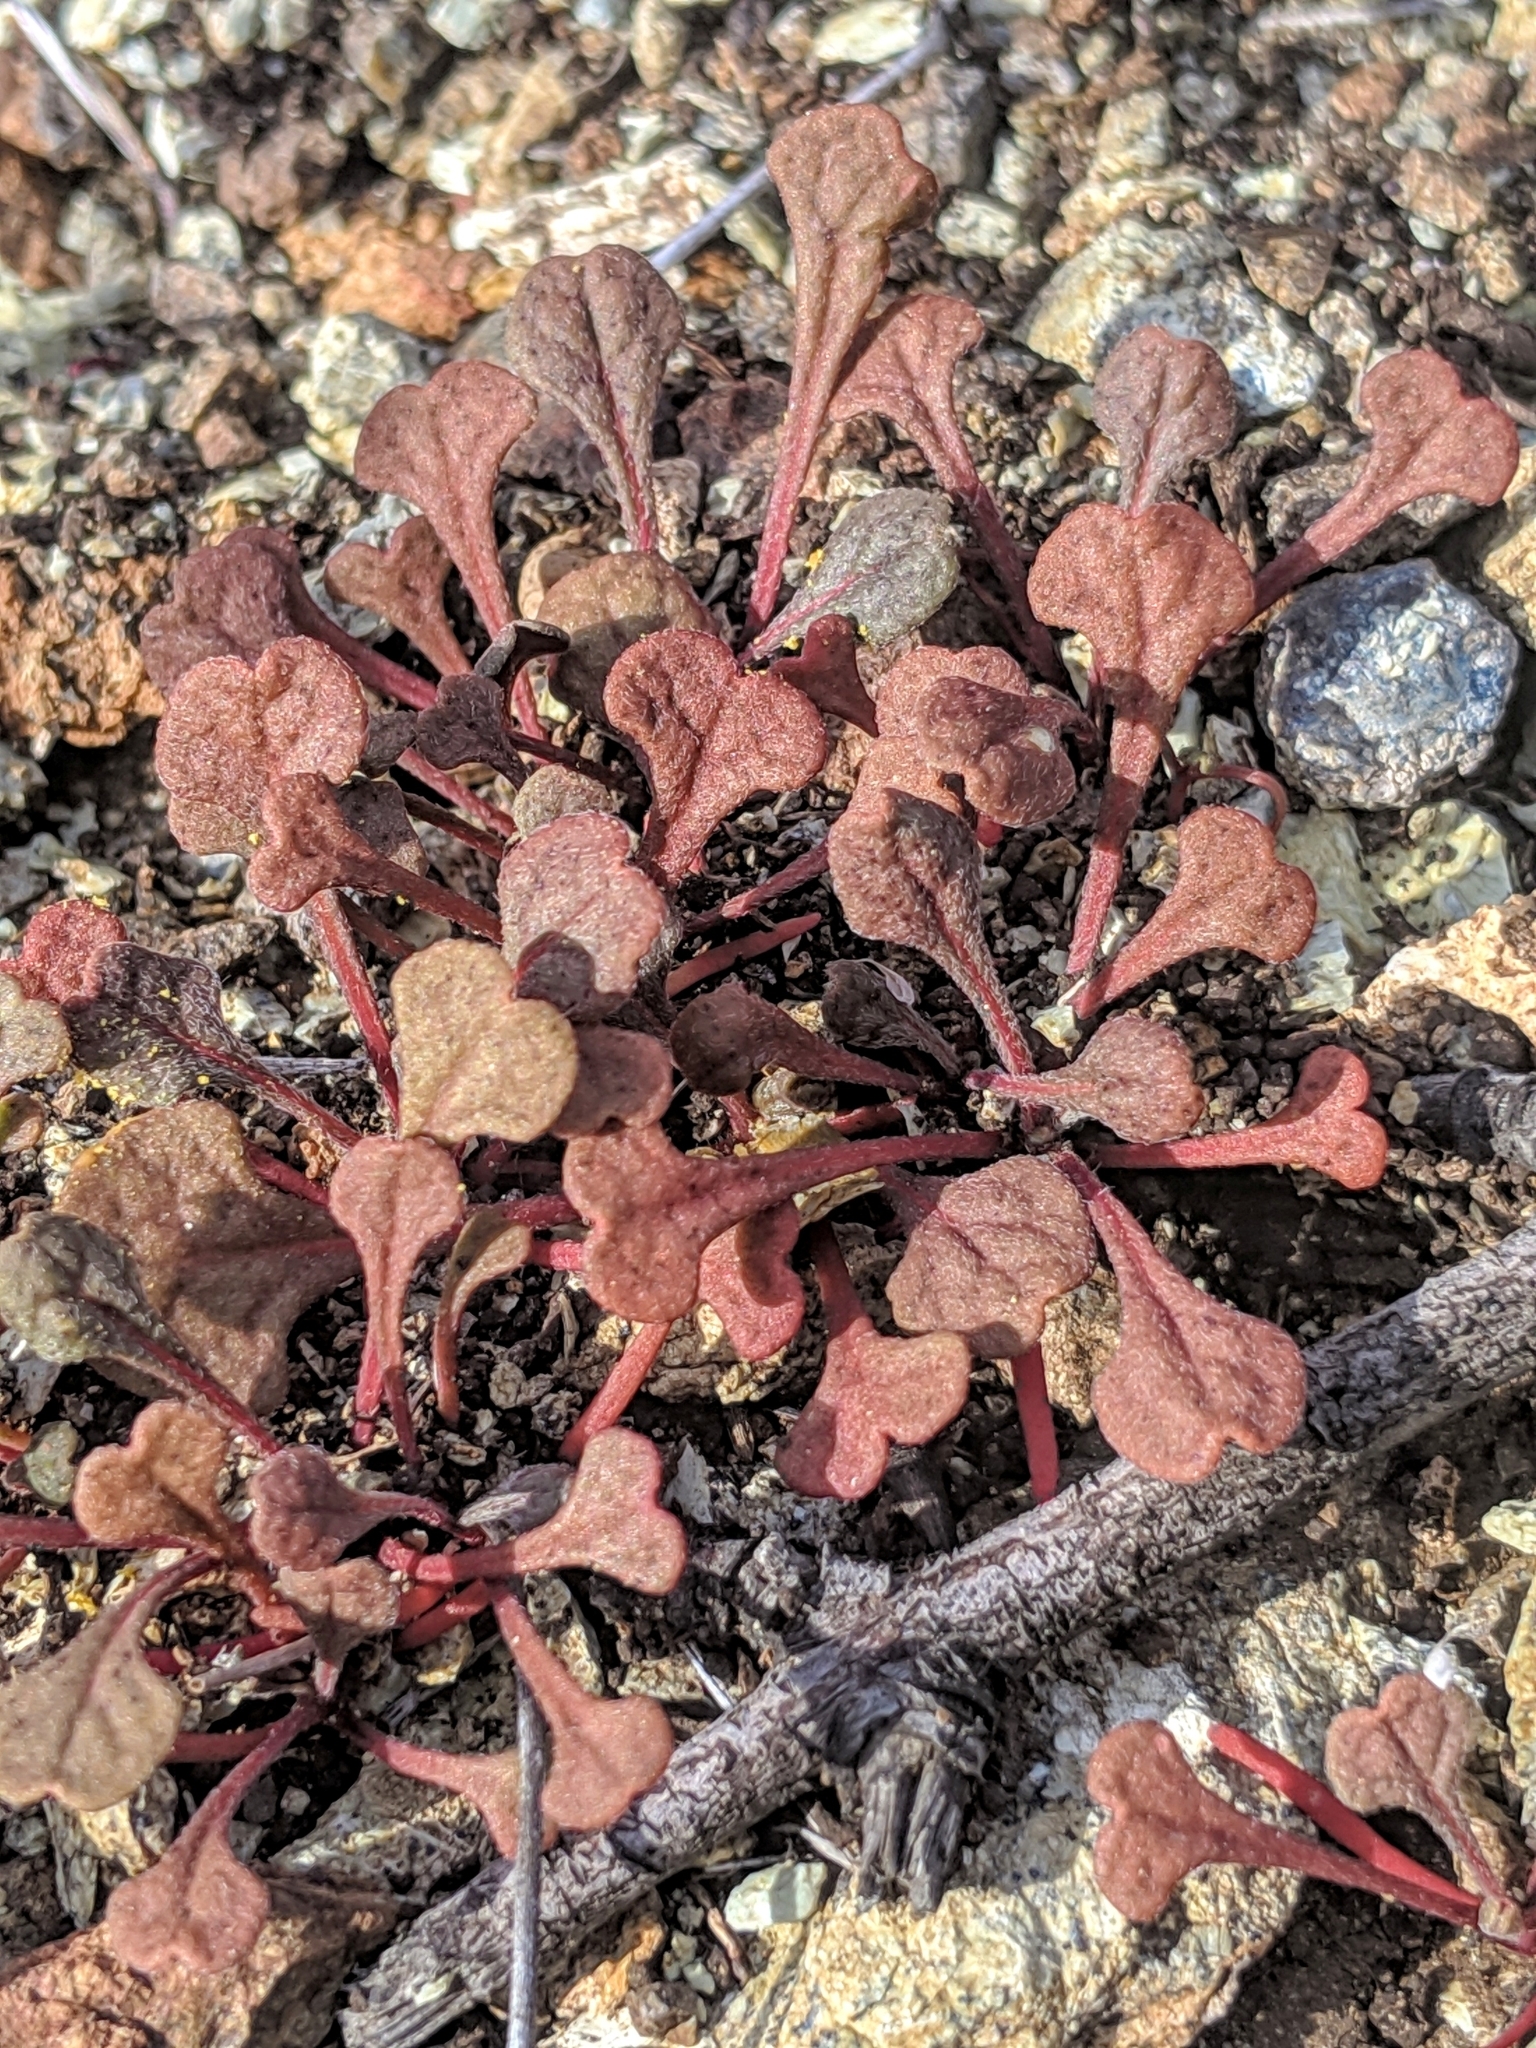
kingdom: Plantae
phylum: Tracheophyta
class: Magnoliopsida
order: Caryophyllales
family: Polygonaceae
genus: Chorizanthe
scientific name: Chorizanthe breweri
